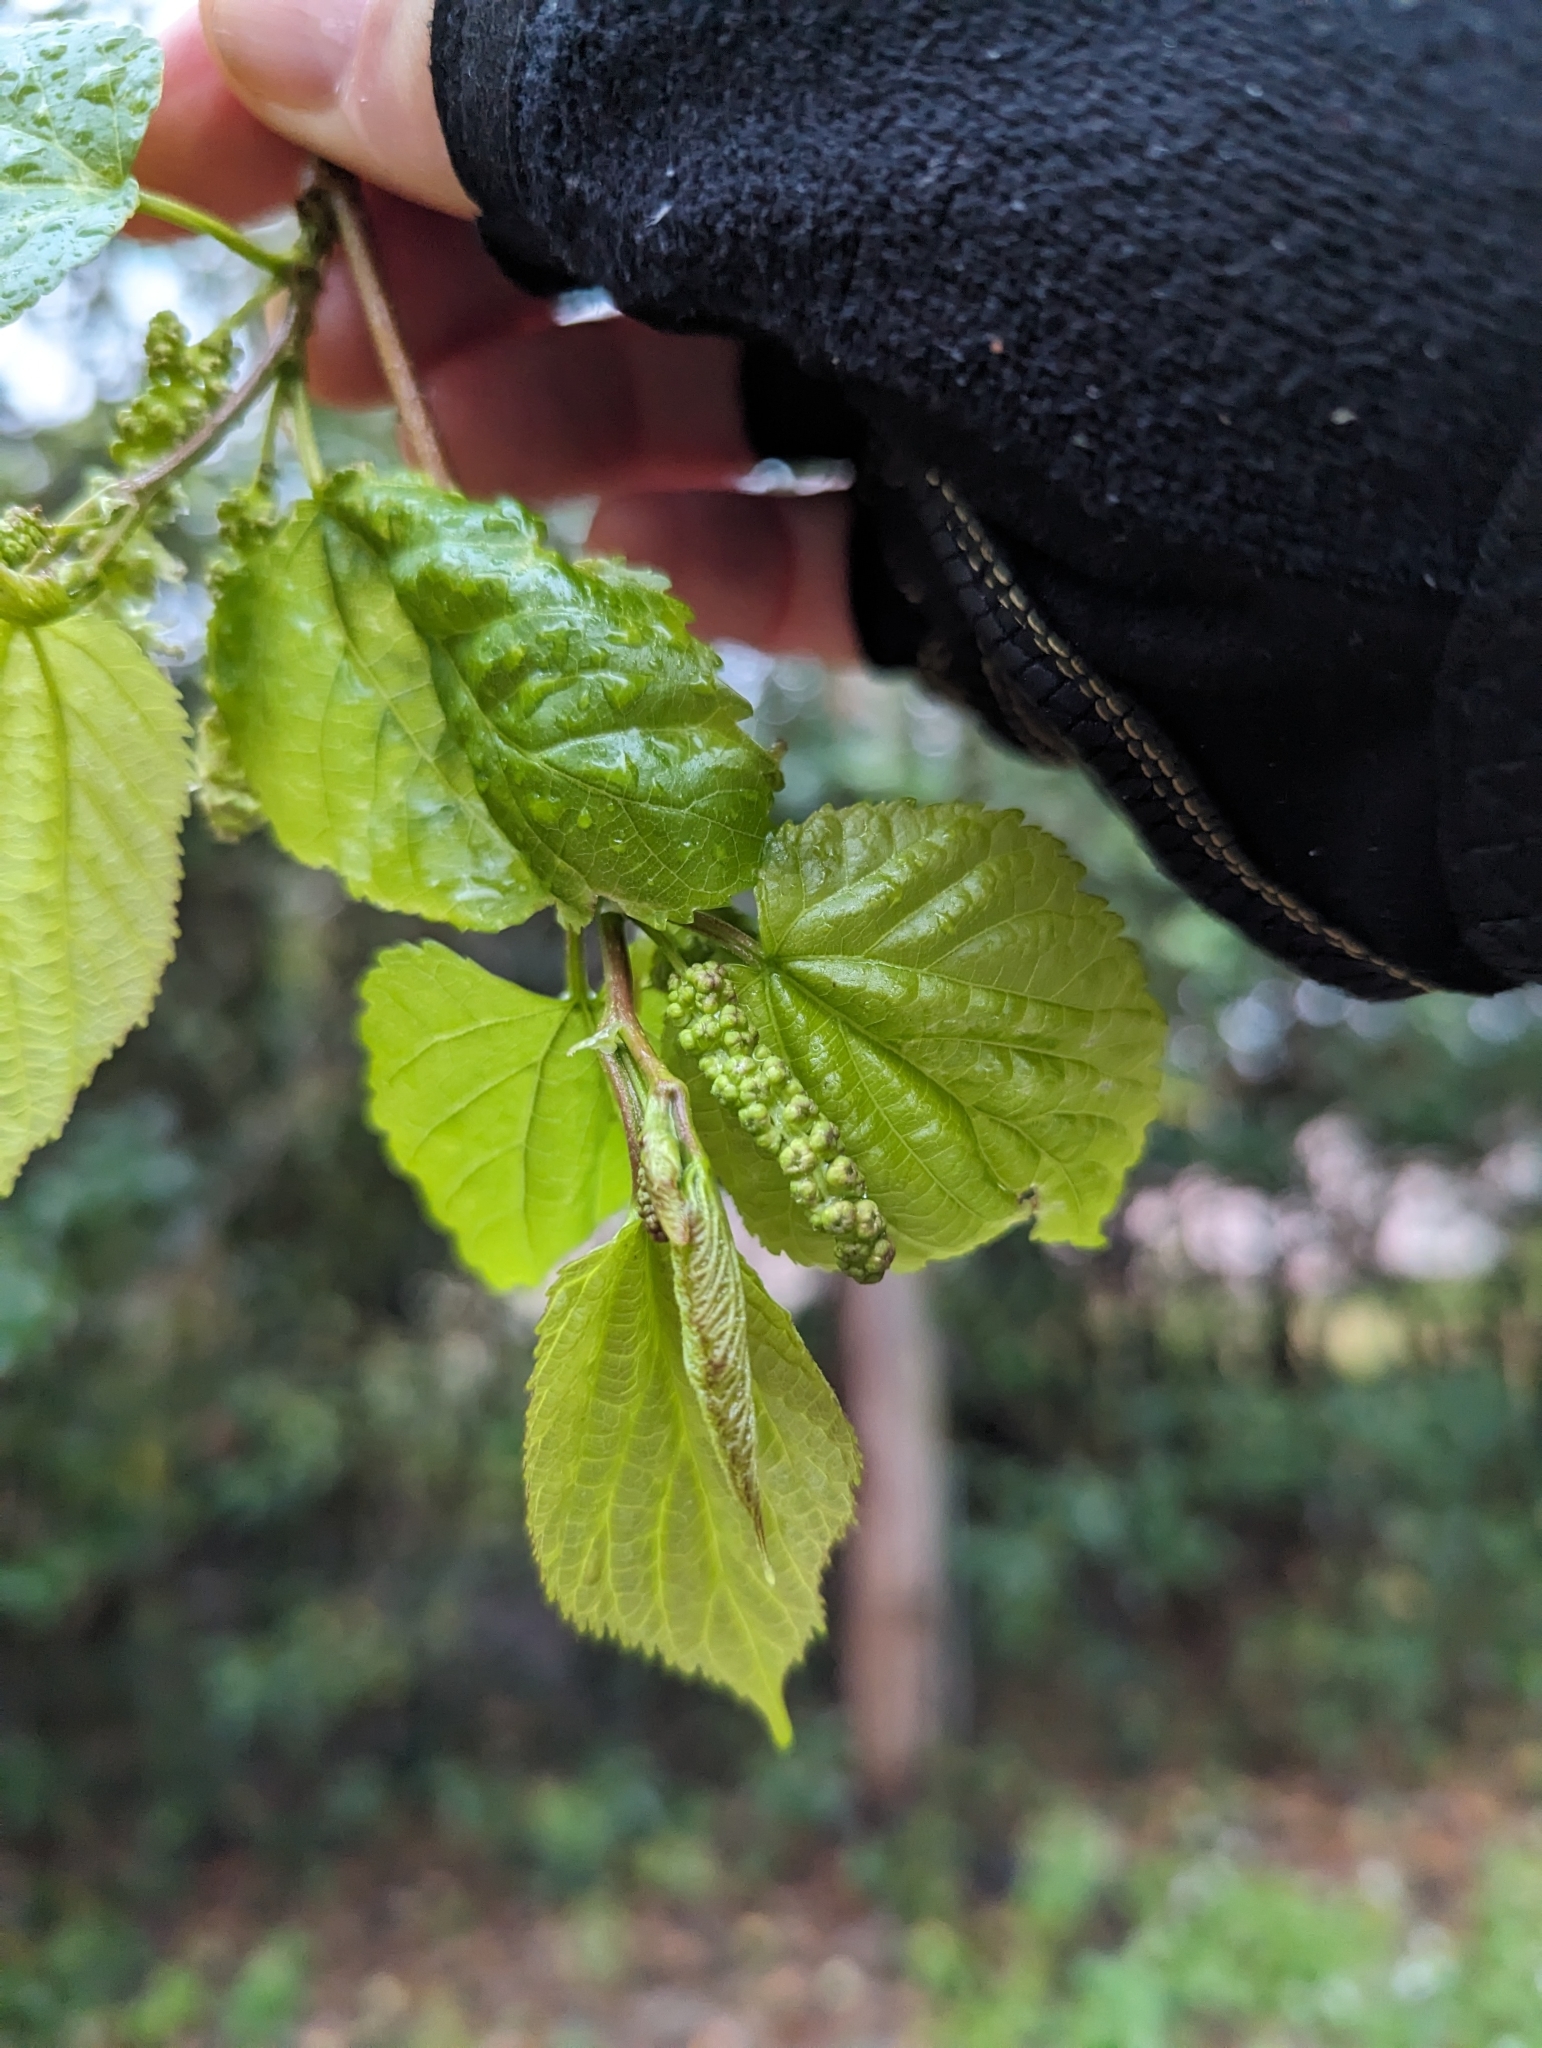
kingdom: Plantae
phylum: Tracheophyta
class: Magnoliopsida
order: Rosales
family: Moraceae
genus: Morus
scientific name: Morus rubra
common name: Red mulberry
